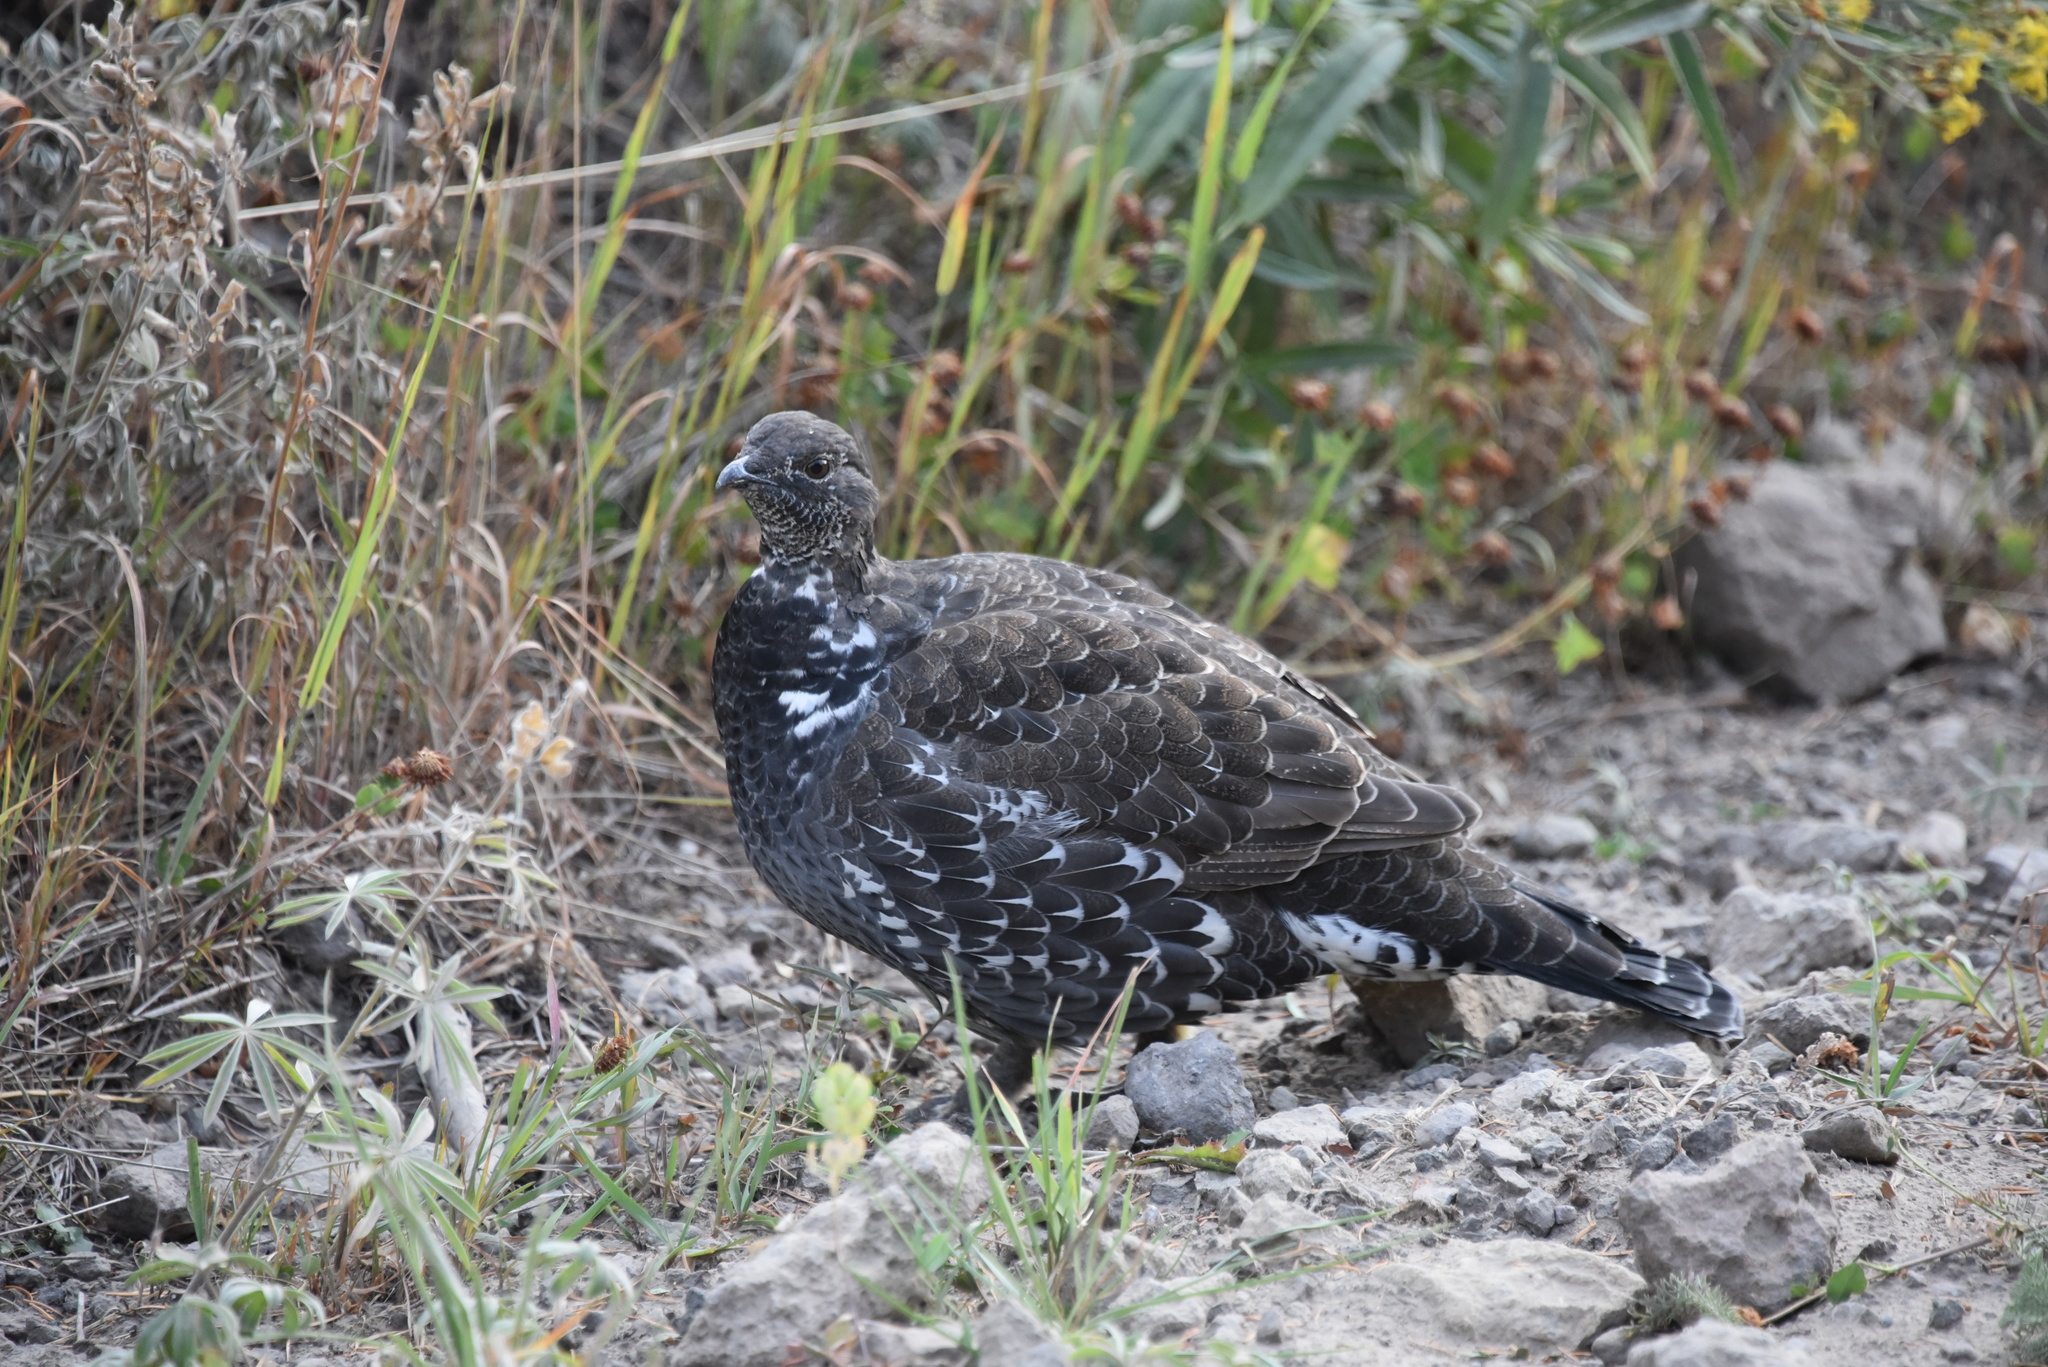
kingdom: Animalia
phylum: Chordata
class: Aves
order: Galliformes
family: Phasianidae
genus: Dendragapus
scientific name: Dendragapus obscurus
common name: Dusky grouse
